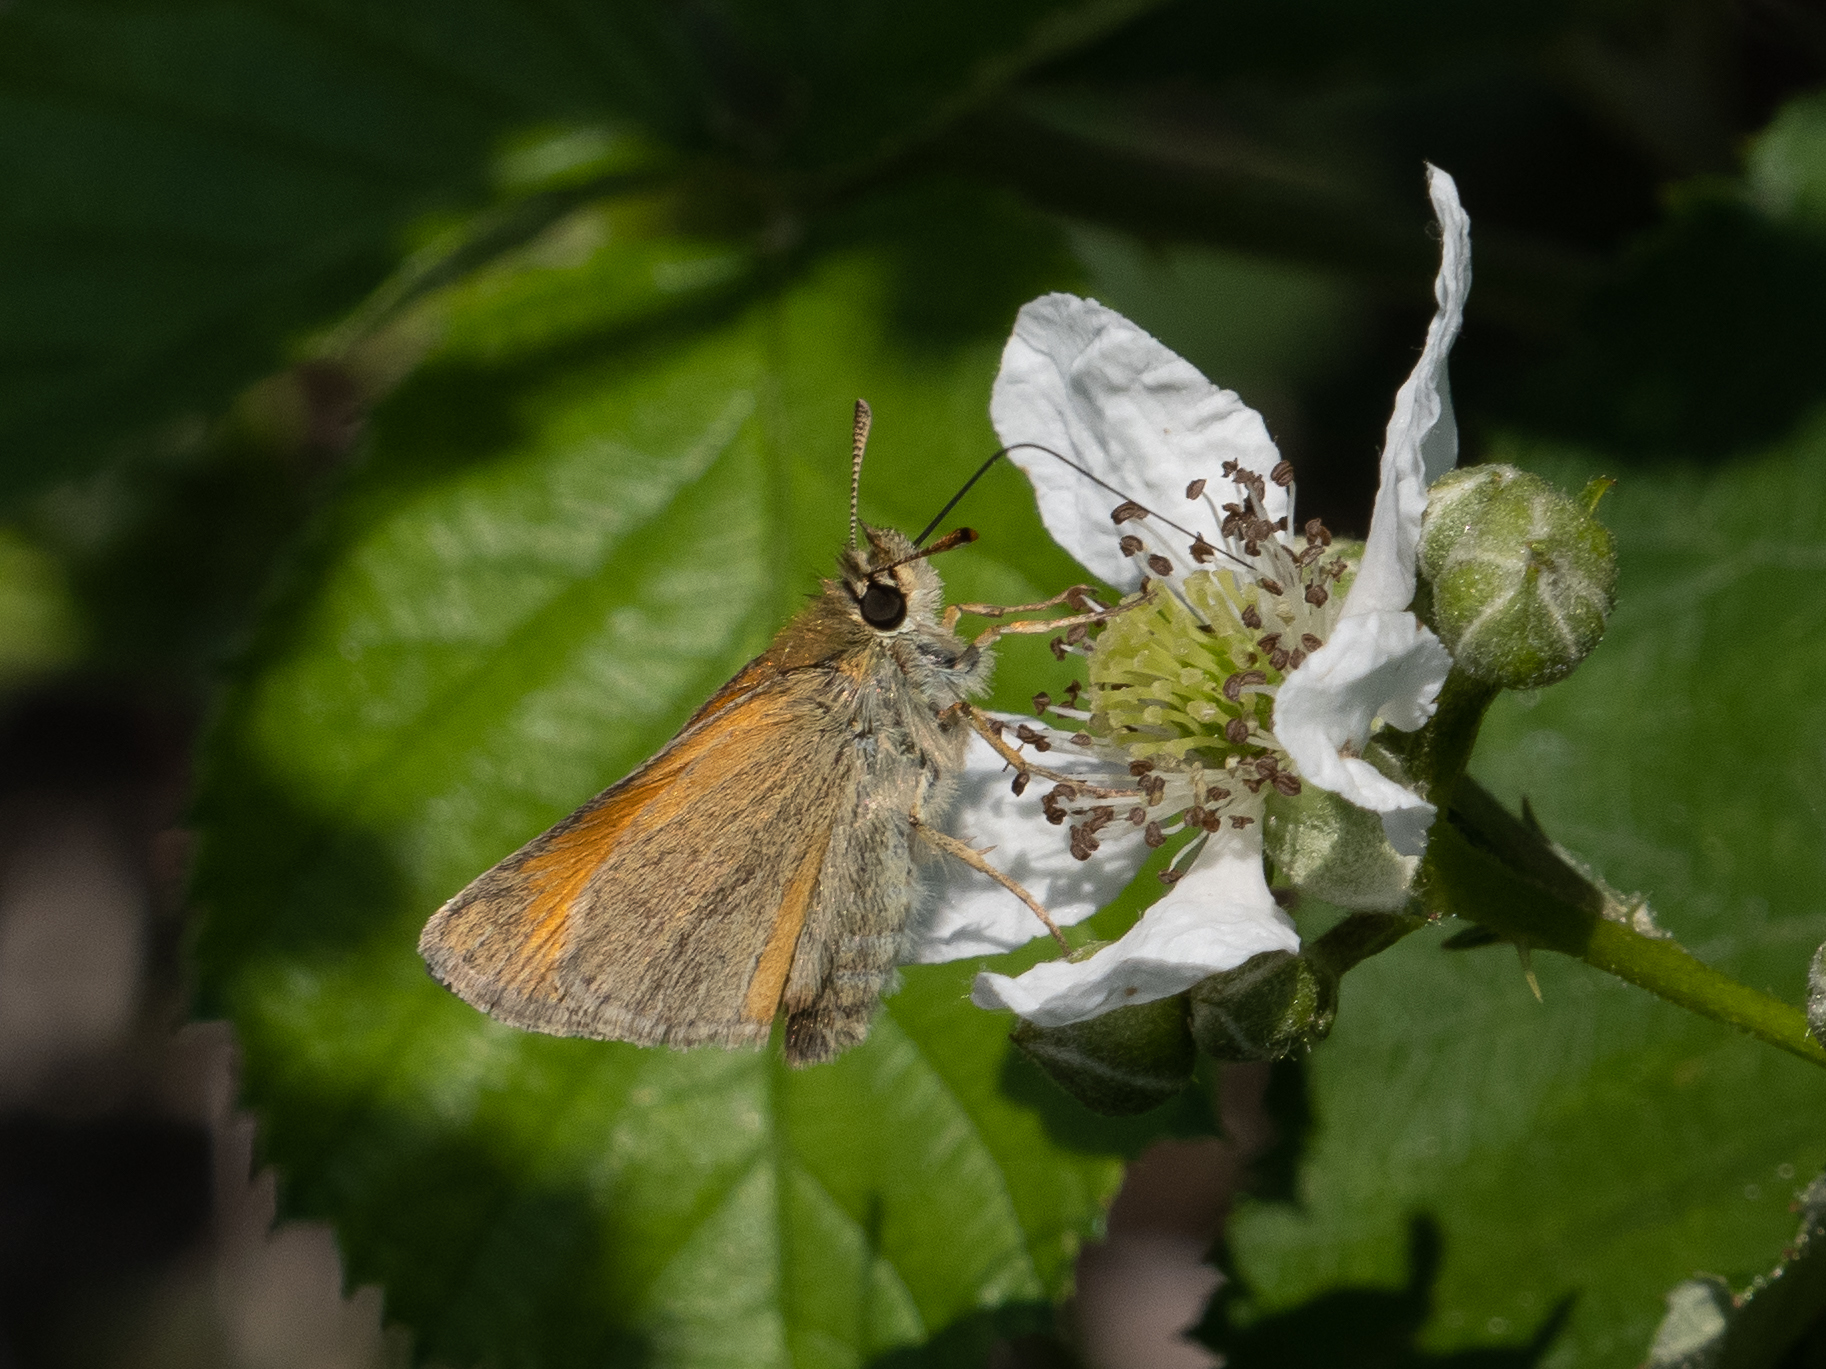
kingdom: Animalia
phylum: Arthropoda
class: Insecta
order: Lepidoptera
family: Hesperiidae
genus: Thymelicus
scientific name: Thymelicus sylvestris
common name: Small skipper
